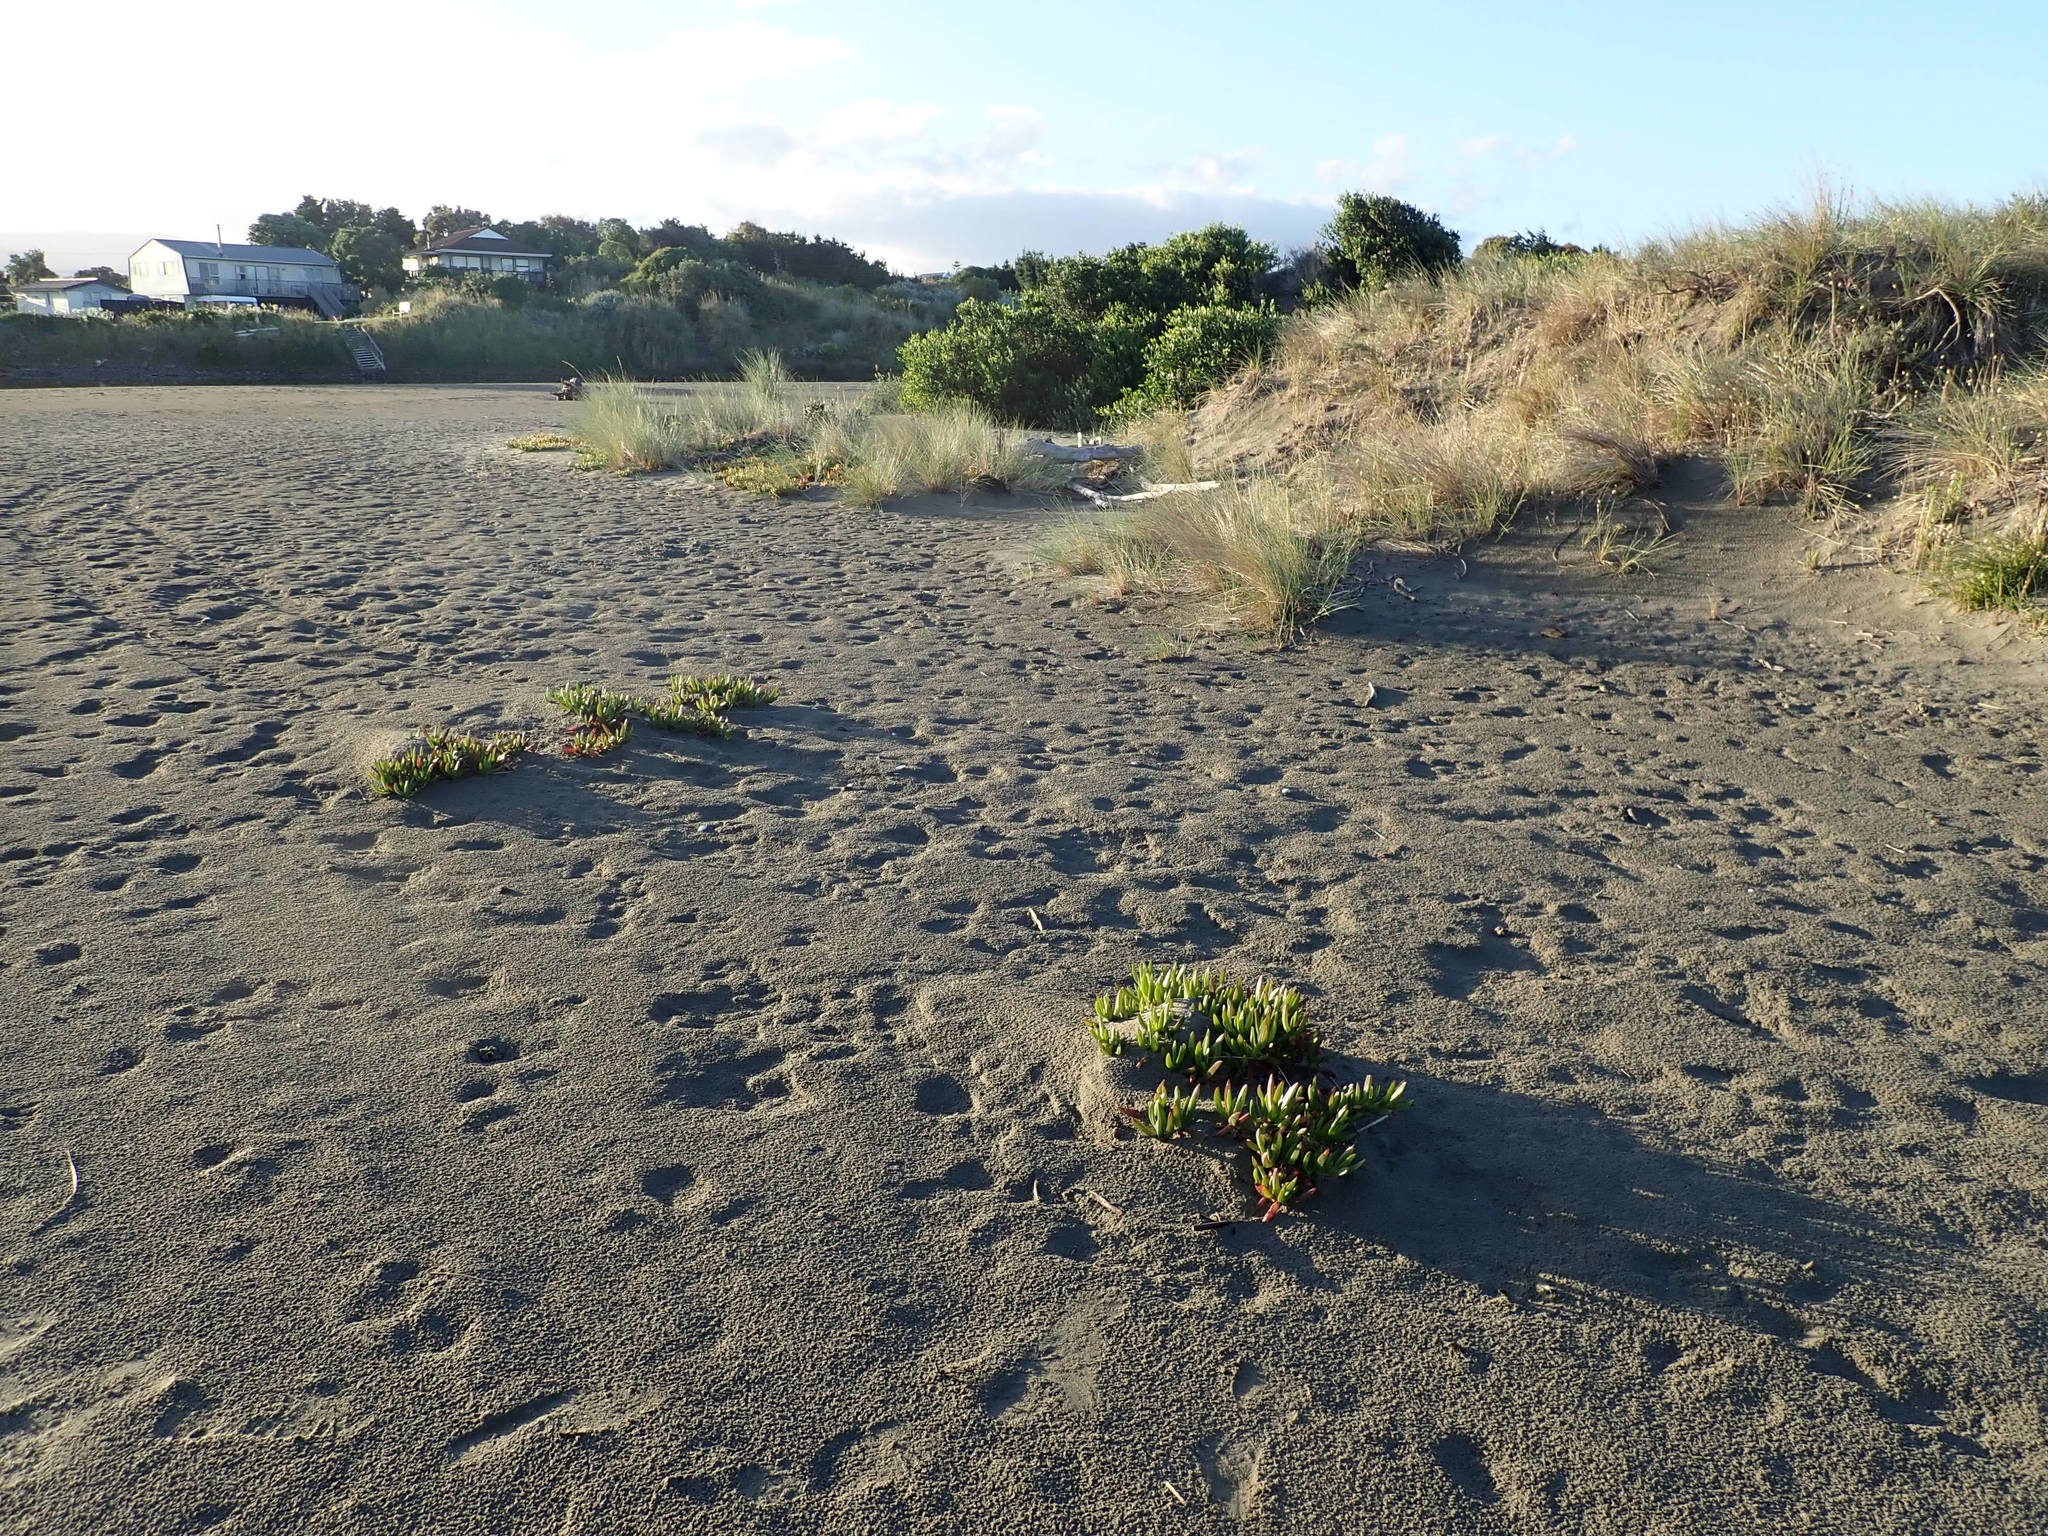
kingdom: Plantae
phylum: Tracheophyta
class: Magnoliopsida
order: Caryophyllales
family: Aizoaceae
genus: Carpobrotus
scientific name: Carpobrotus edulis
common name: Hottentot-fig
